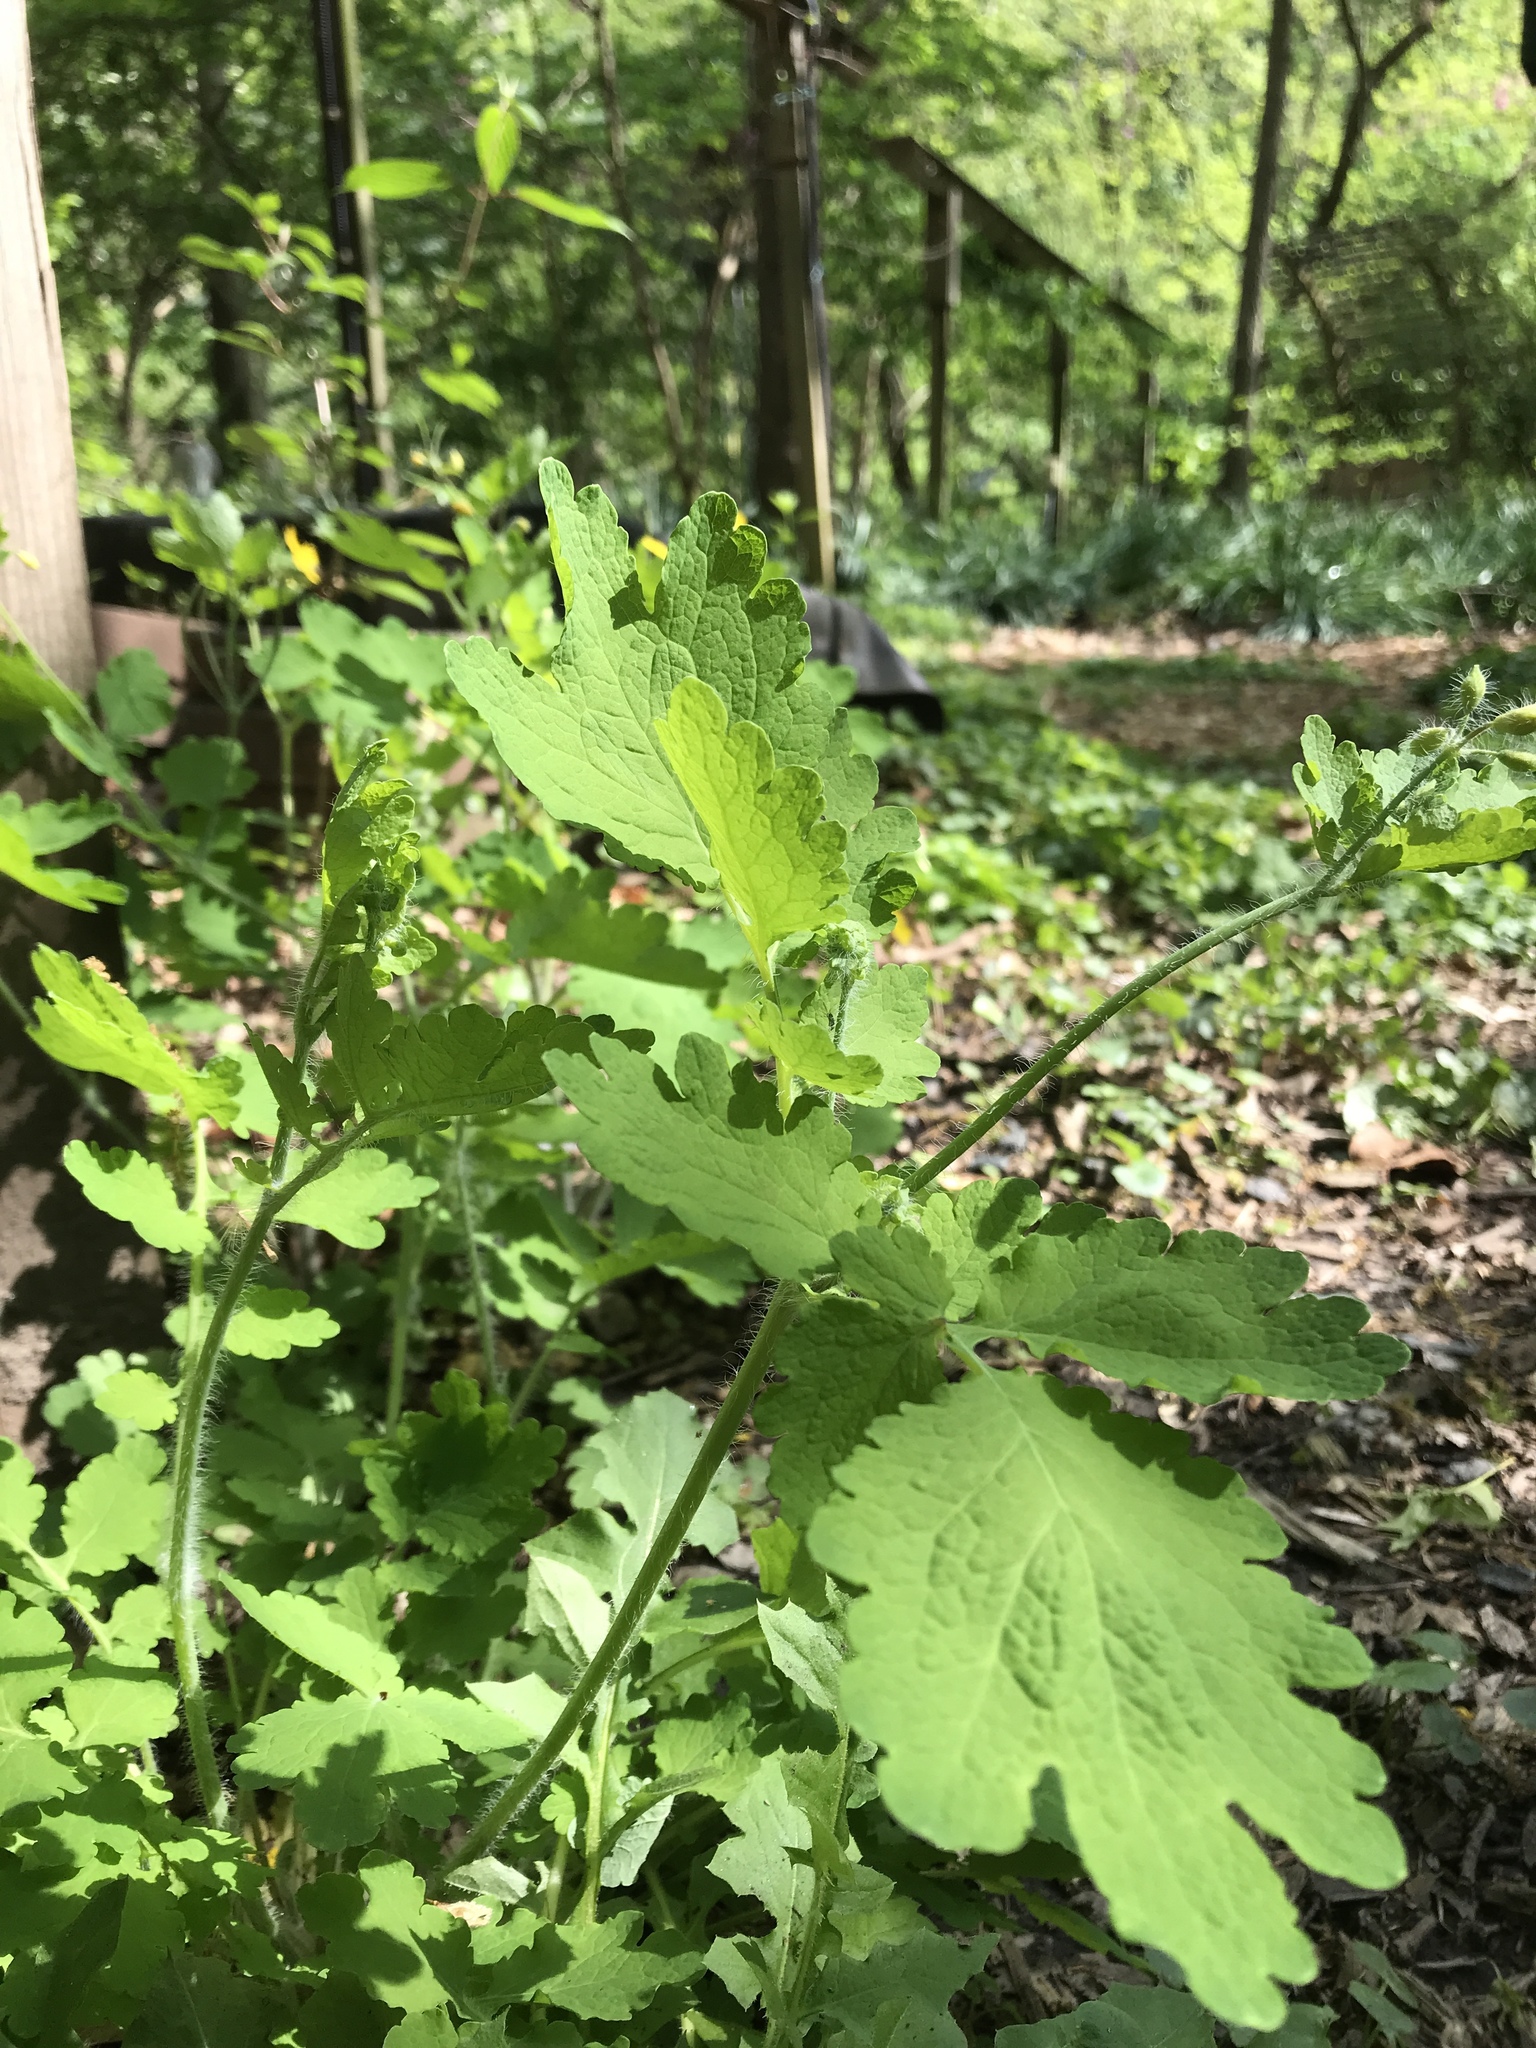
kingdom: Plantae
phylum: Tracheophyta
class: Magnoliopsida
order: Ranunculales
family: Papaveraceae
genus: Chelidonium
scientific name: Chelidonium majus
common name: Greater celandine
